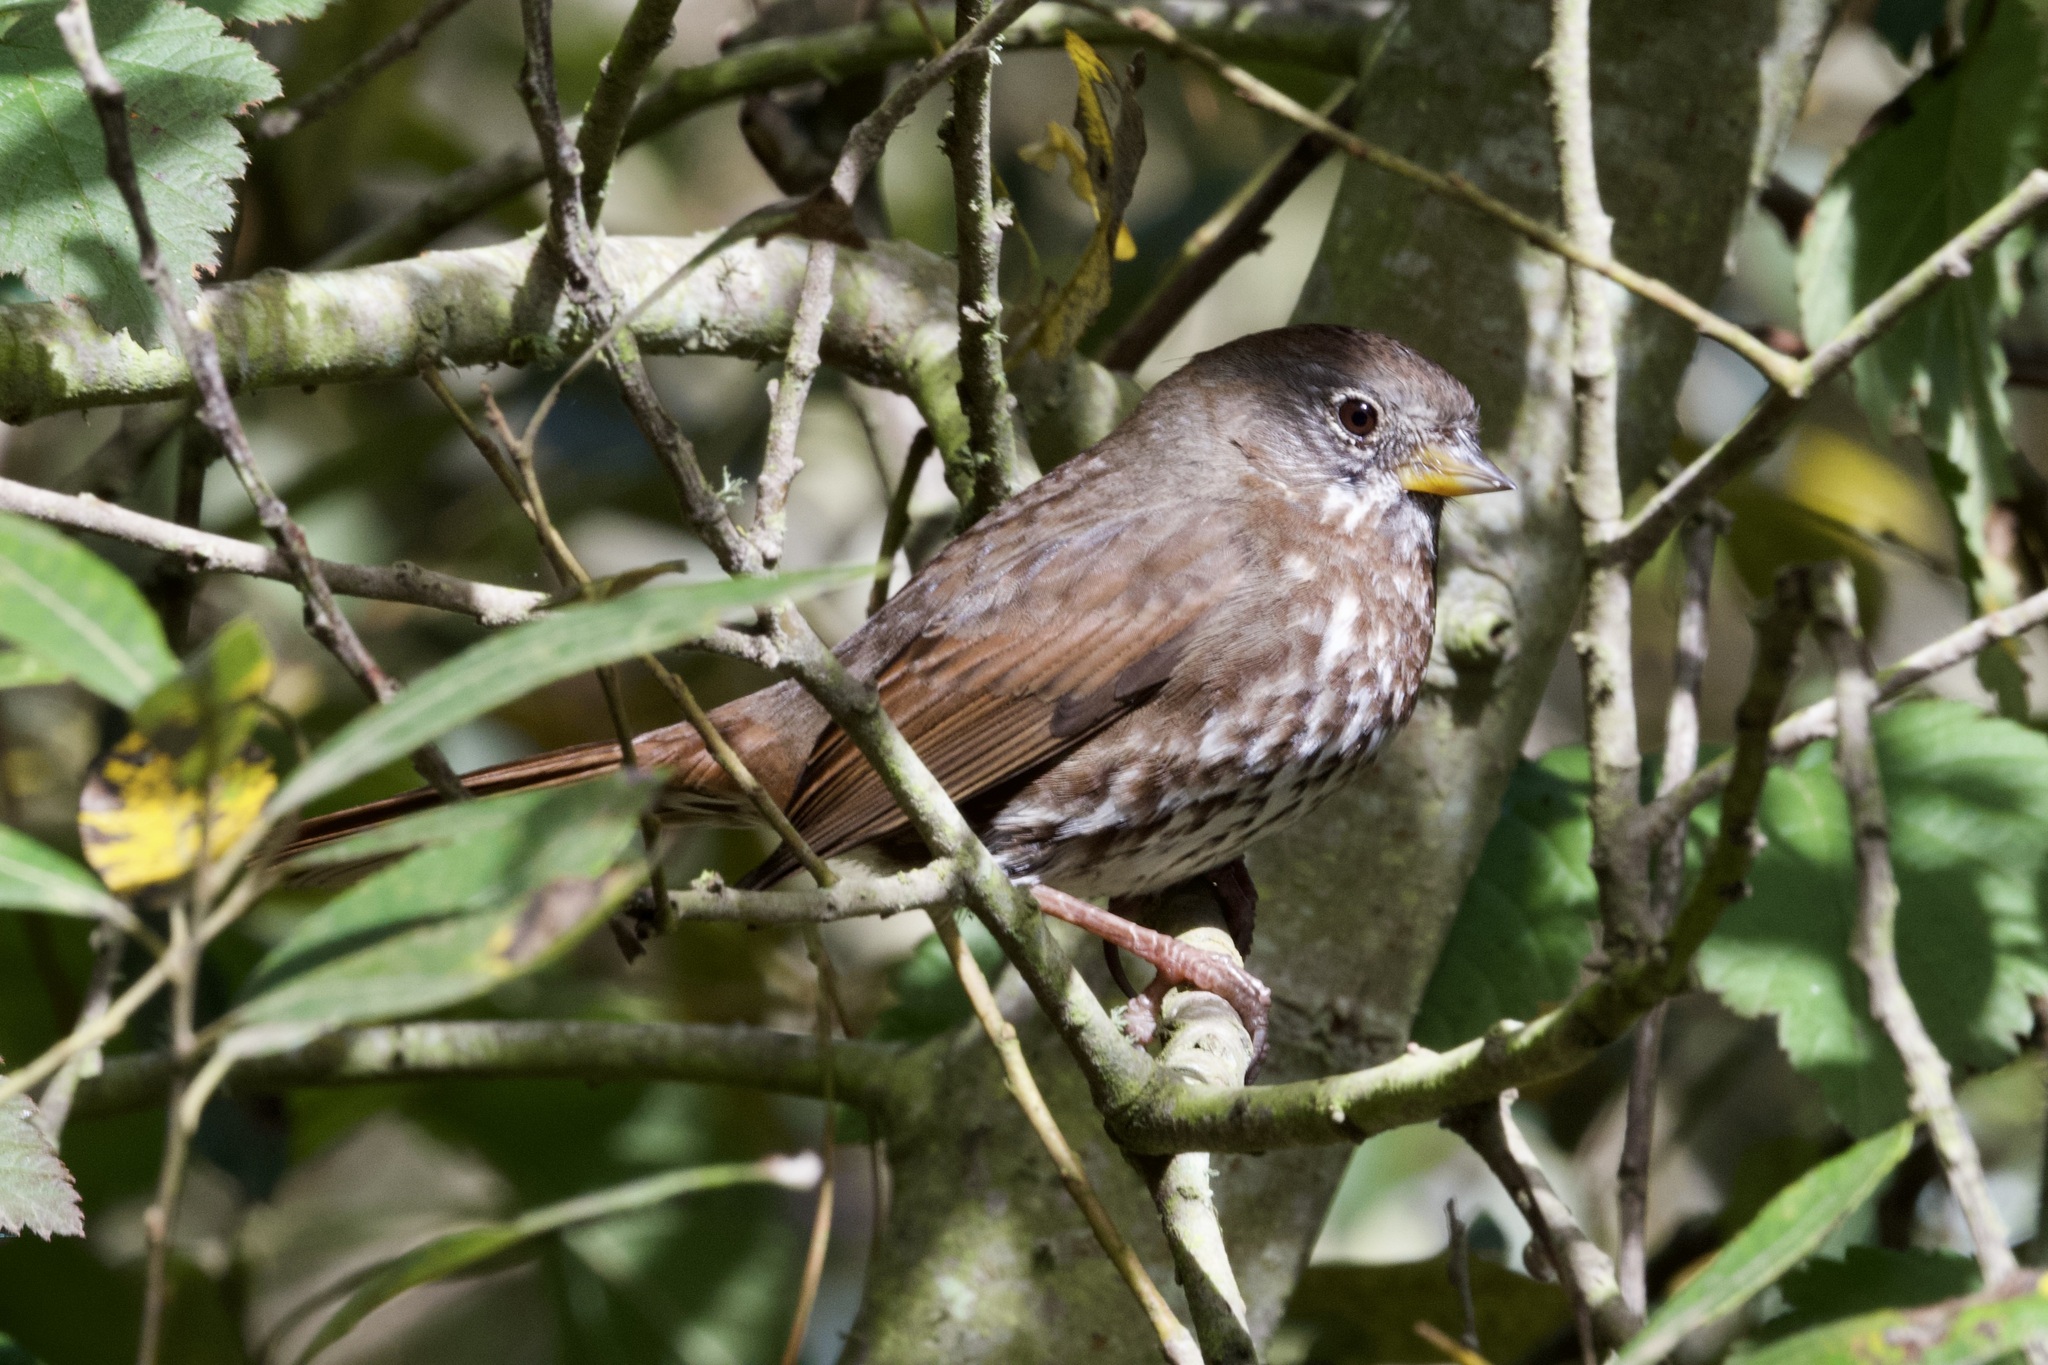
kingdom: Animalia
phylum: Chordata
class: Aves
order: Passeriformes
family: Passerellidae
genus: Passerella
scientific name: Passerella iliaca
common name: Fox sparrow
